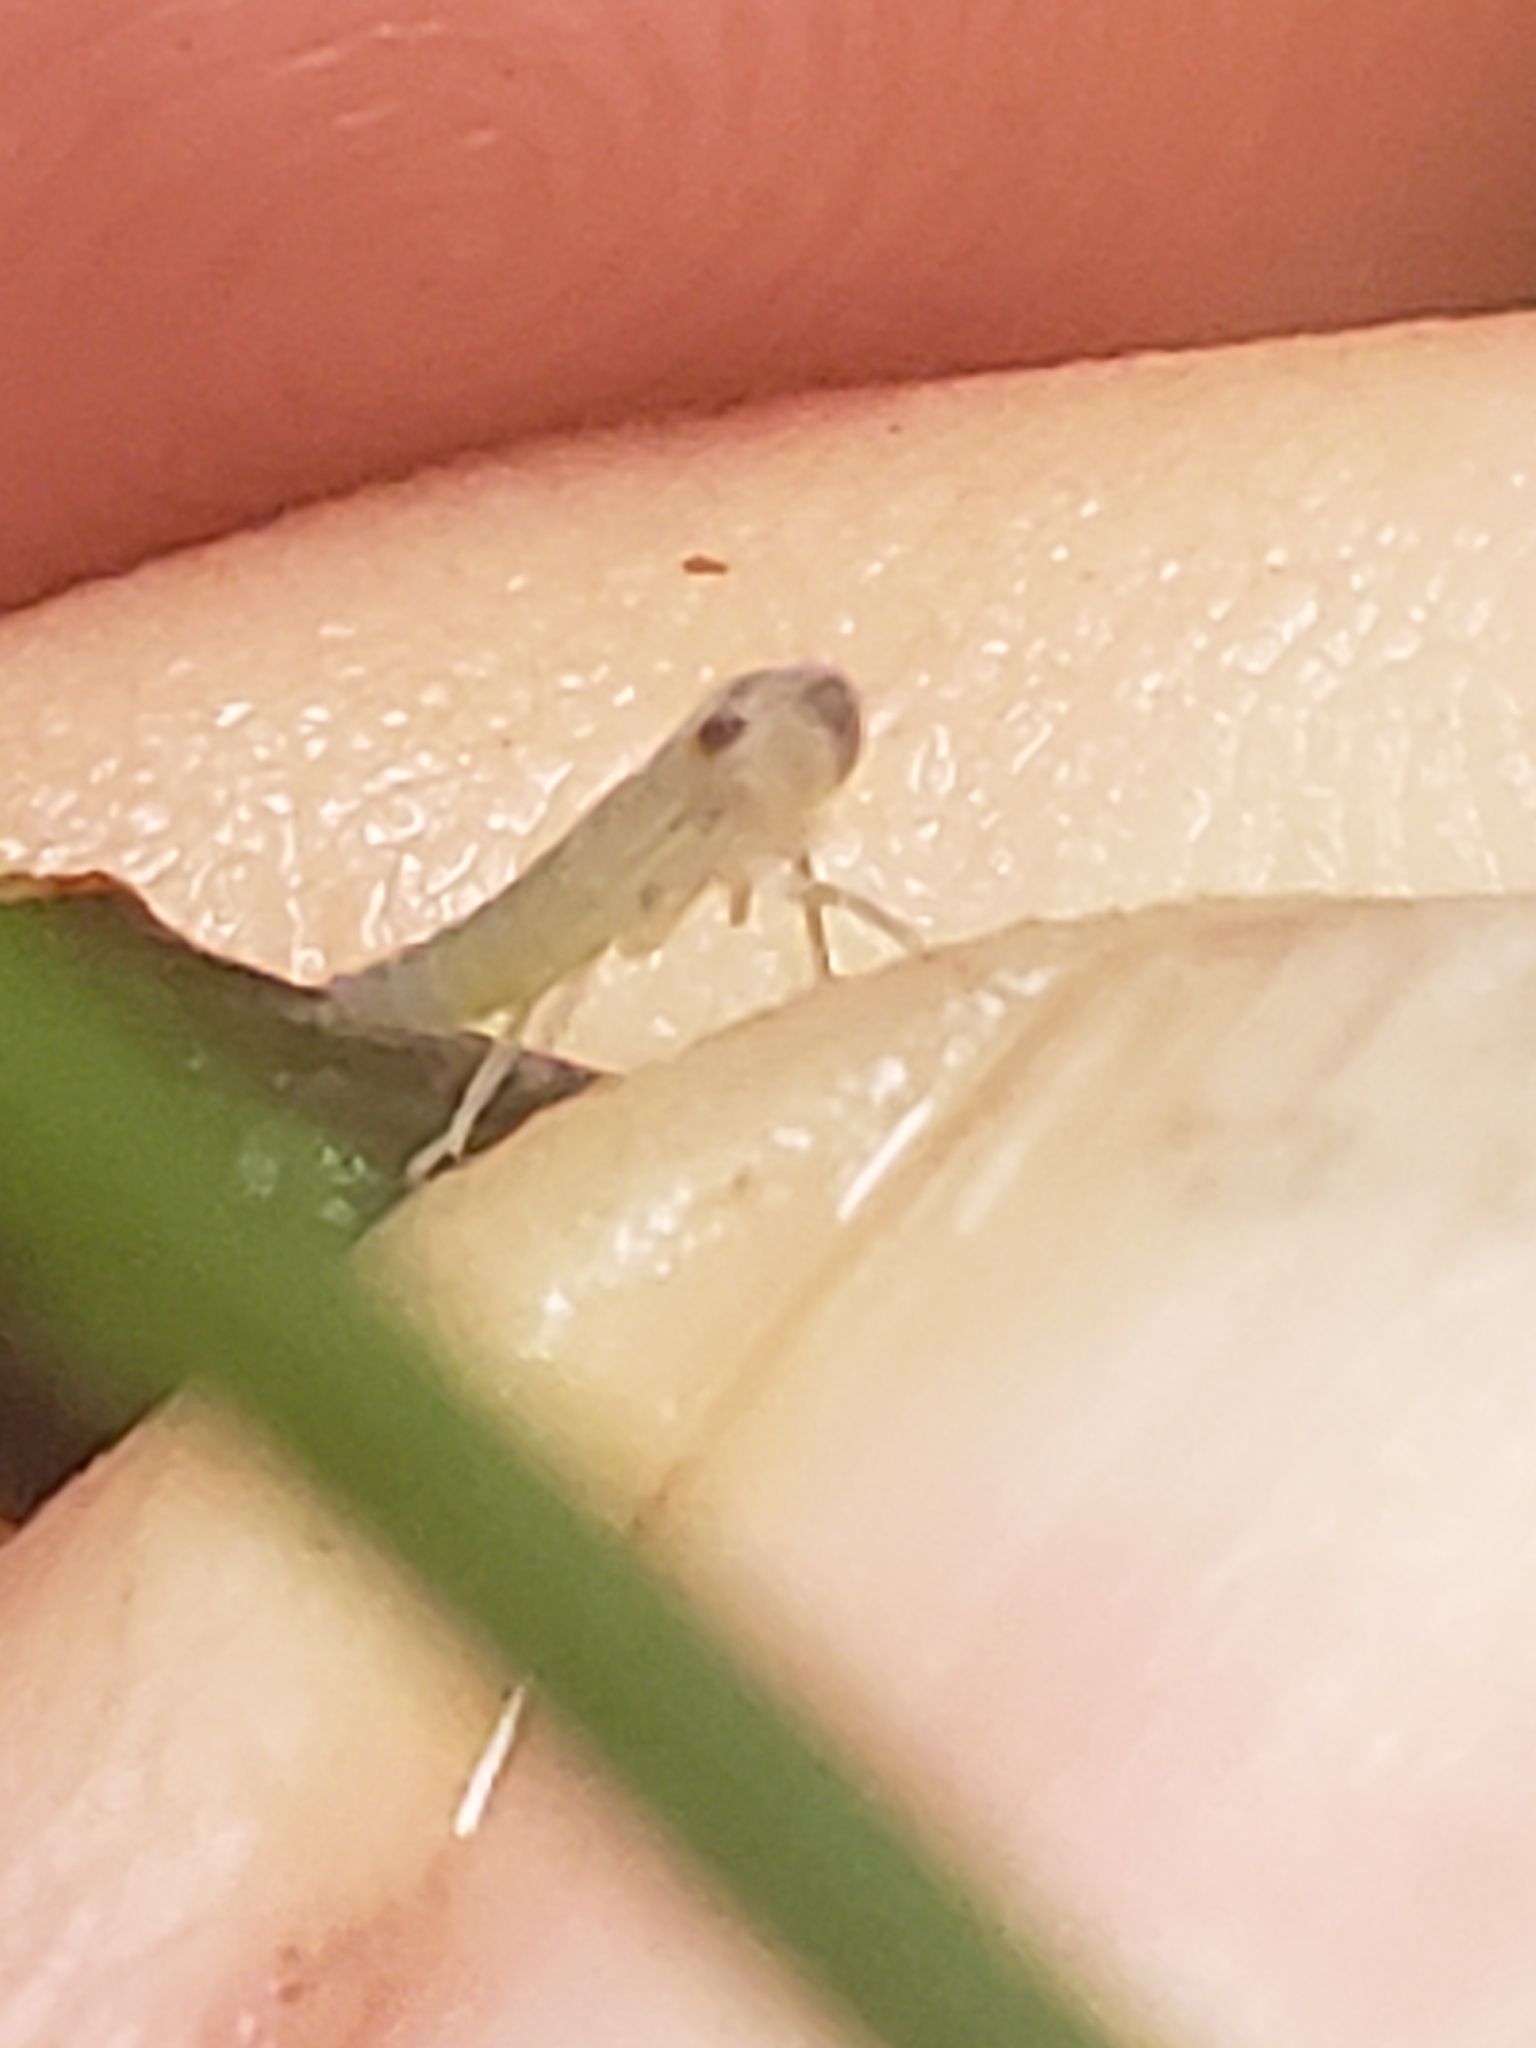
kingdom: Animalia
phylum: Arthropoda
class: Insecta
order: Hemiptera
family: Cicadellidae
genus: Oncometopia
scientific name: Oncometopia orbona
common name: Broad-headed sharpshooter
